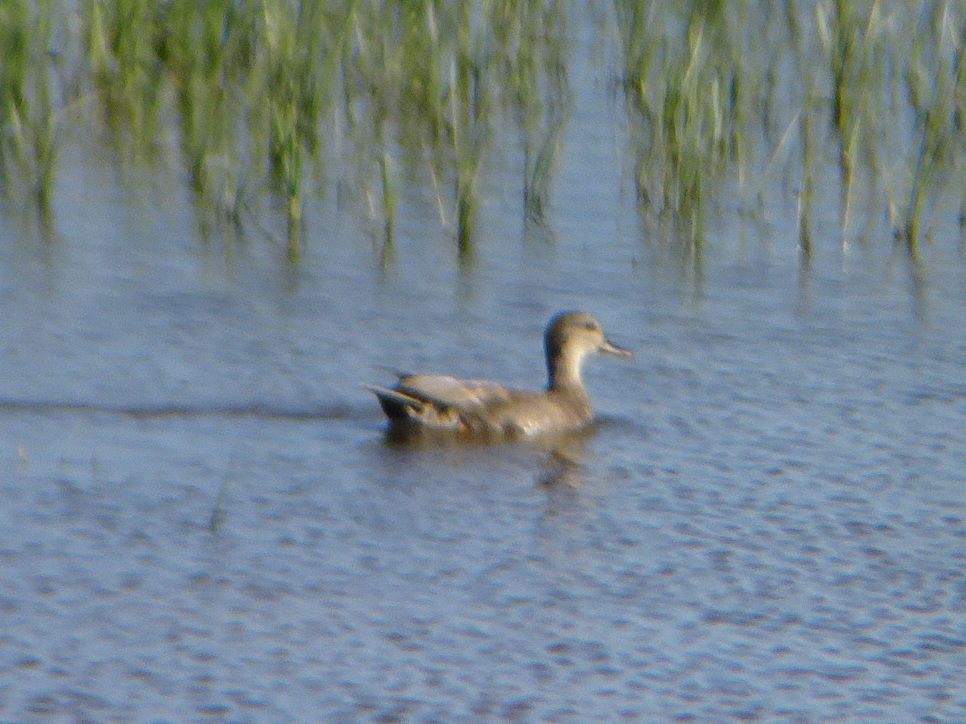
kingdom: Animalia
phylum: Chordata
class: Aves
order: Anseriformes
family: Anatidae
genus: Mareca
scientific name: Mareca strepera
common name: Gadwall
